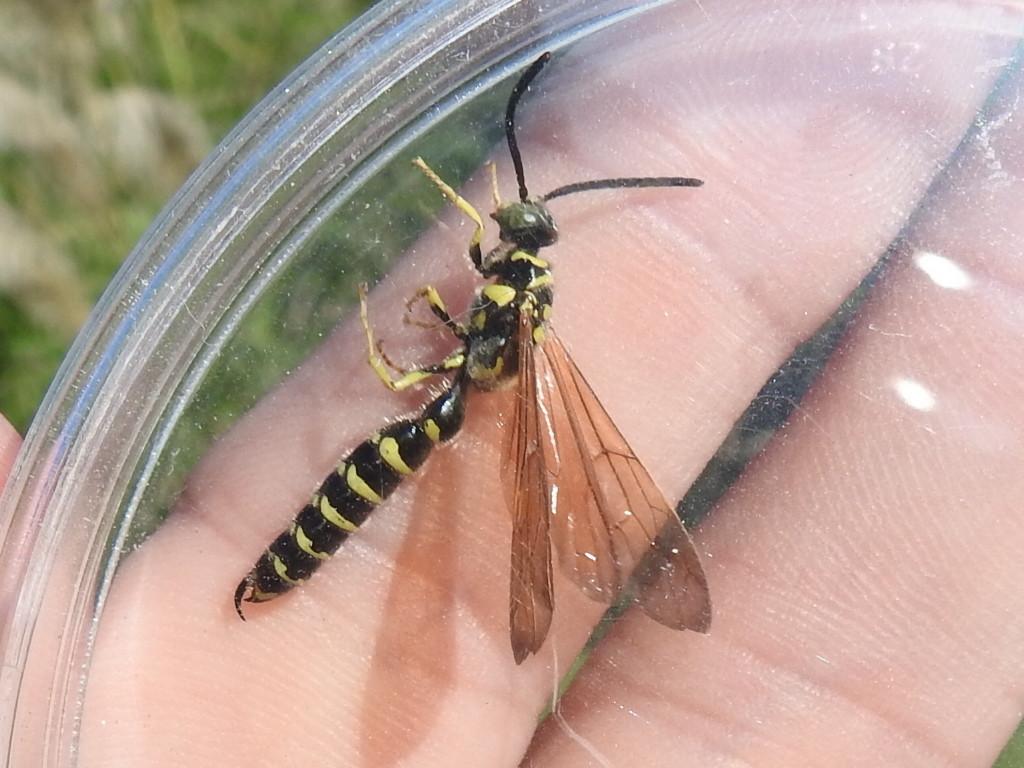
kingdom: Animalia
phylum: Arthropoda
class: Insecta
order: Hymenoptera
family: Tiphiidae
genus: Myzinum
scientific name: Myzinum quinquecinctum
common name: Five-banded thynnid wasp
